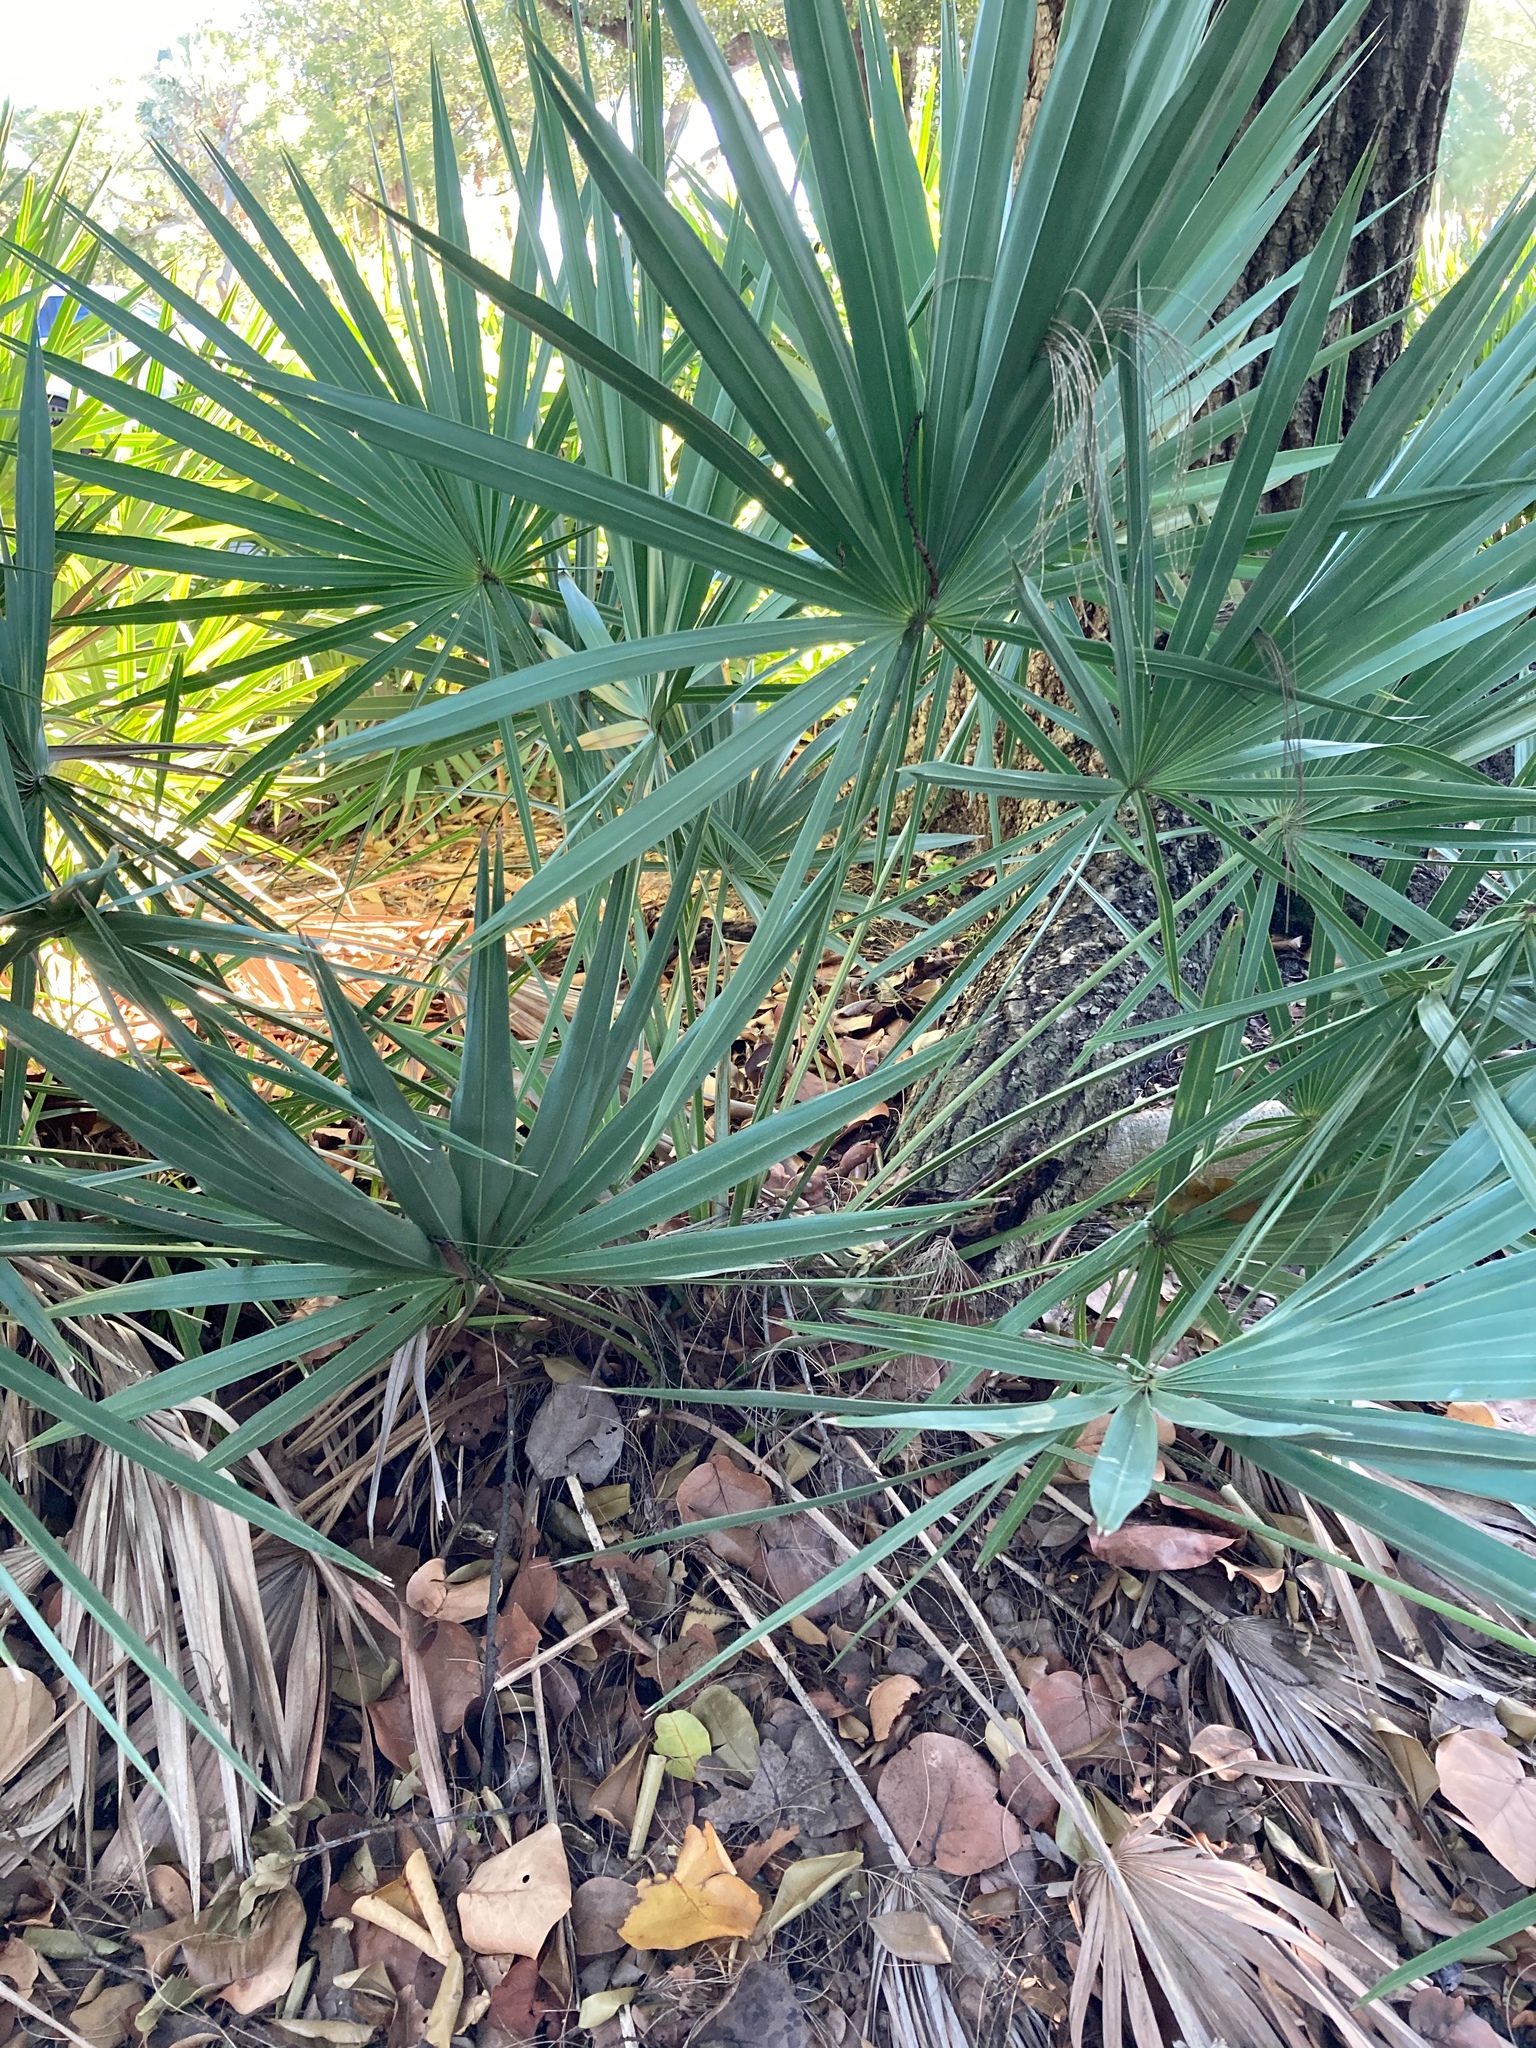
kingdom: Plantae
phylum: Tracheophyta
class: Liliopsida
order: Arecales
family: Arecaceae
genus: Serenoa
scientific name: Serenoa repens
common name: Saw-palmetto
